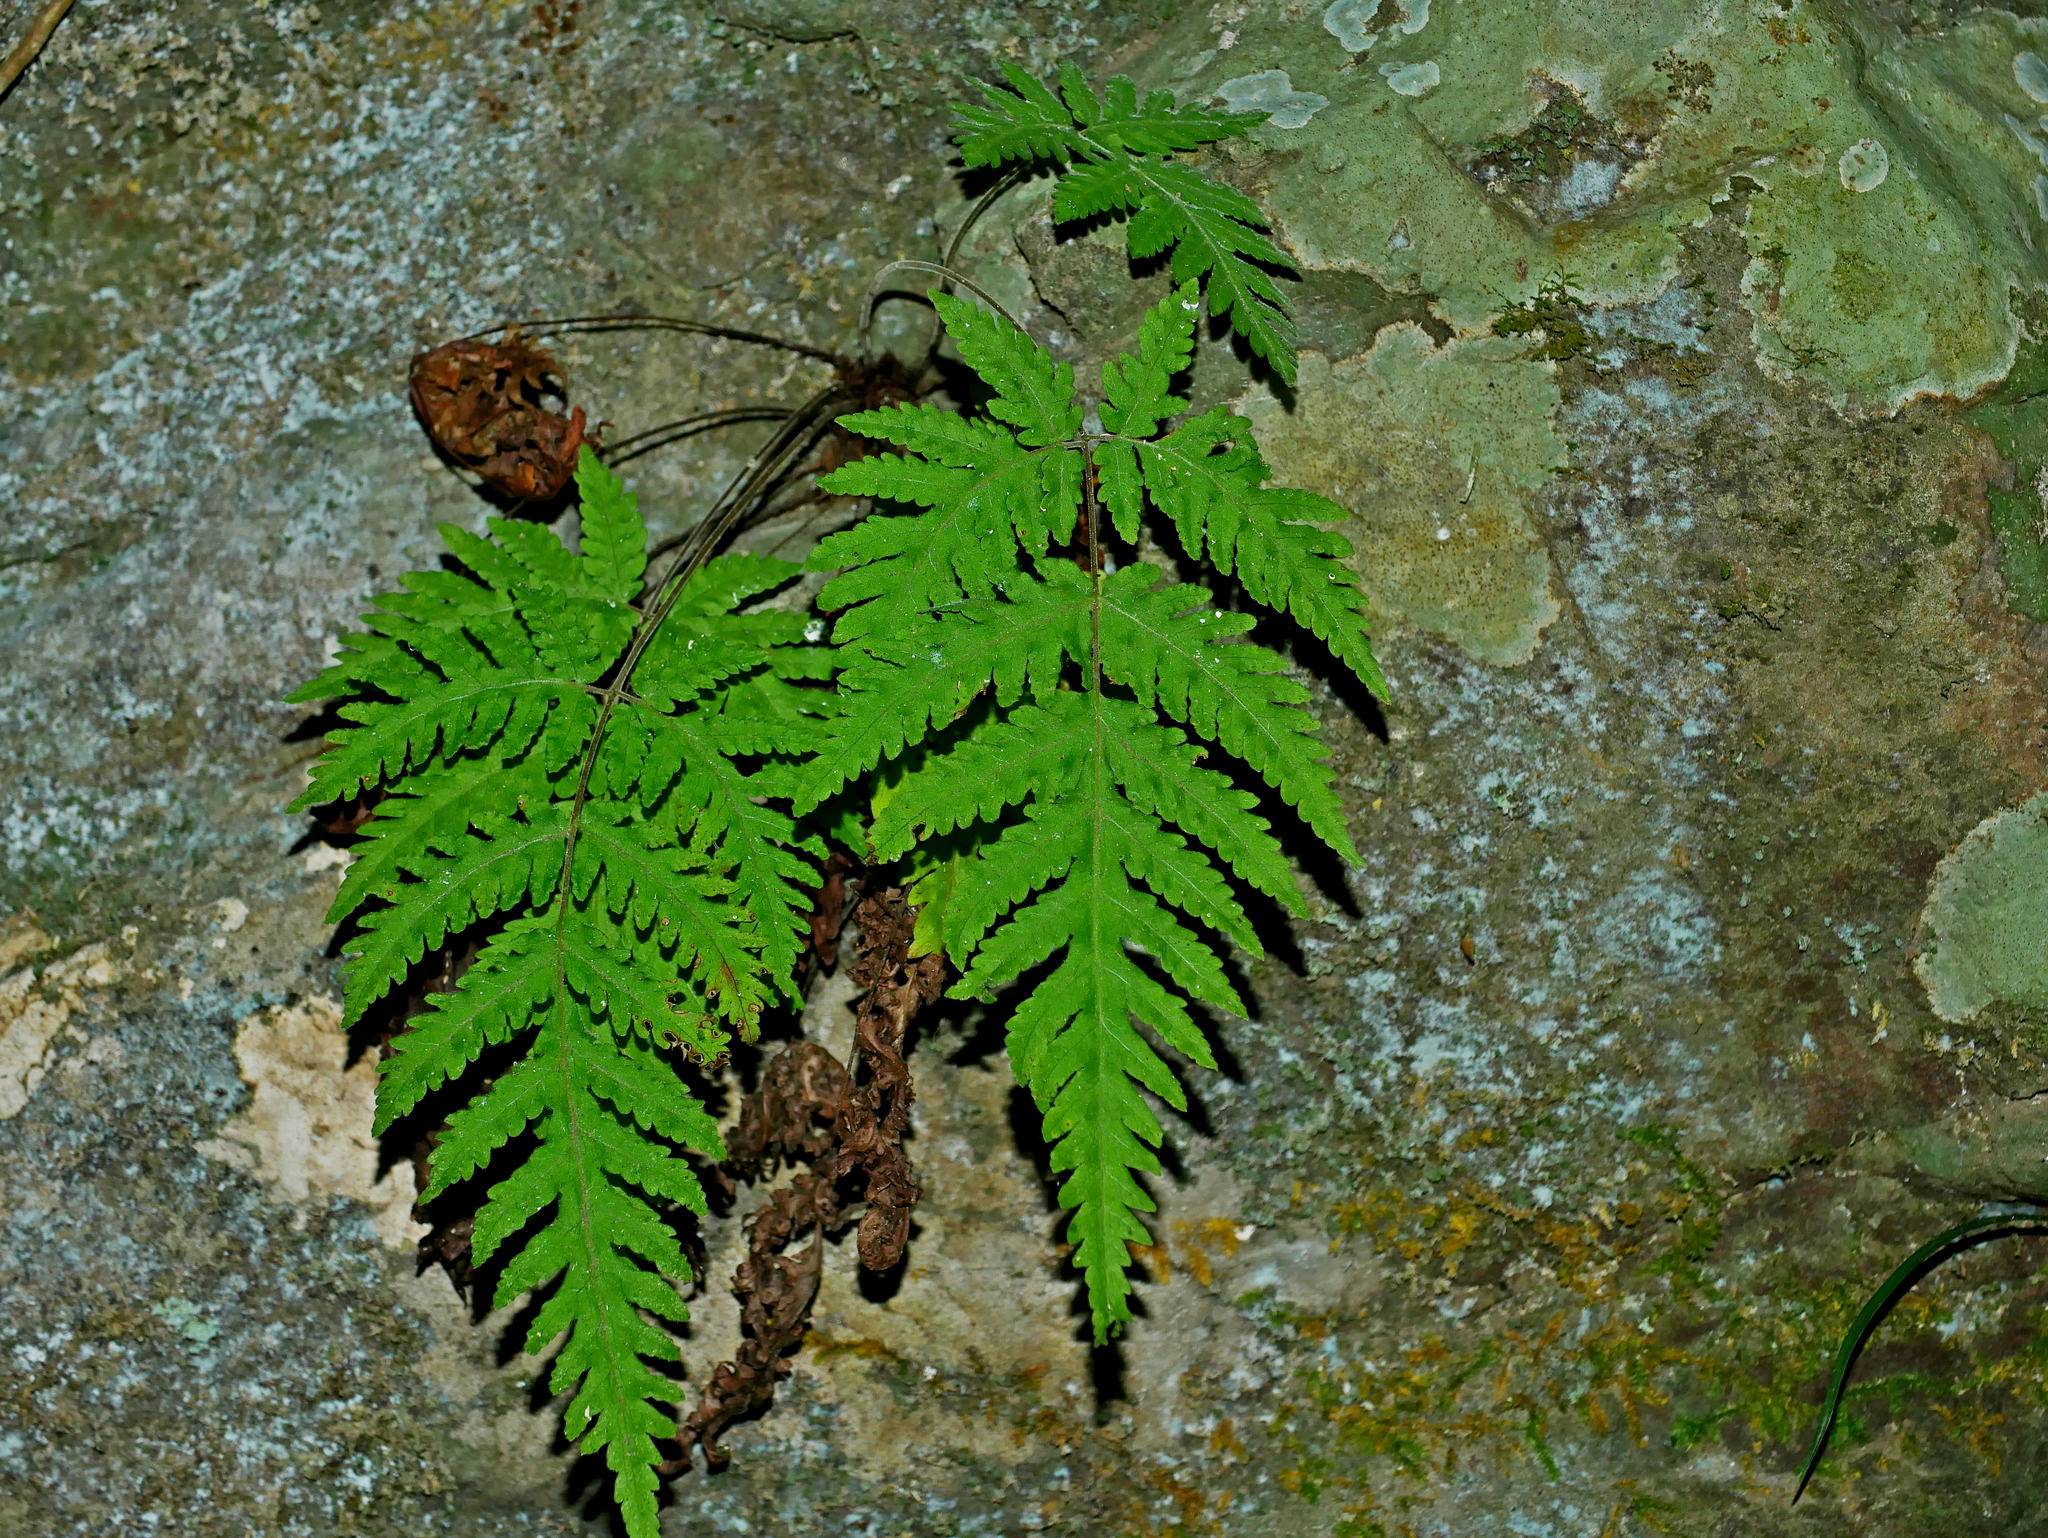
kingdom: Plantae
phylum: Tracheophyta
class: Polypodiopsida
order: Polypodiales
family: Tectariaceae
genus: Tectaria
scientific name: Tectaria membranacea
